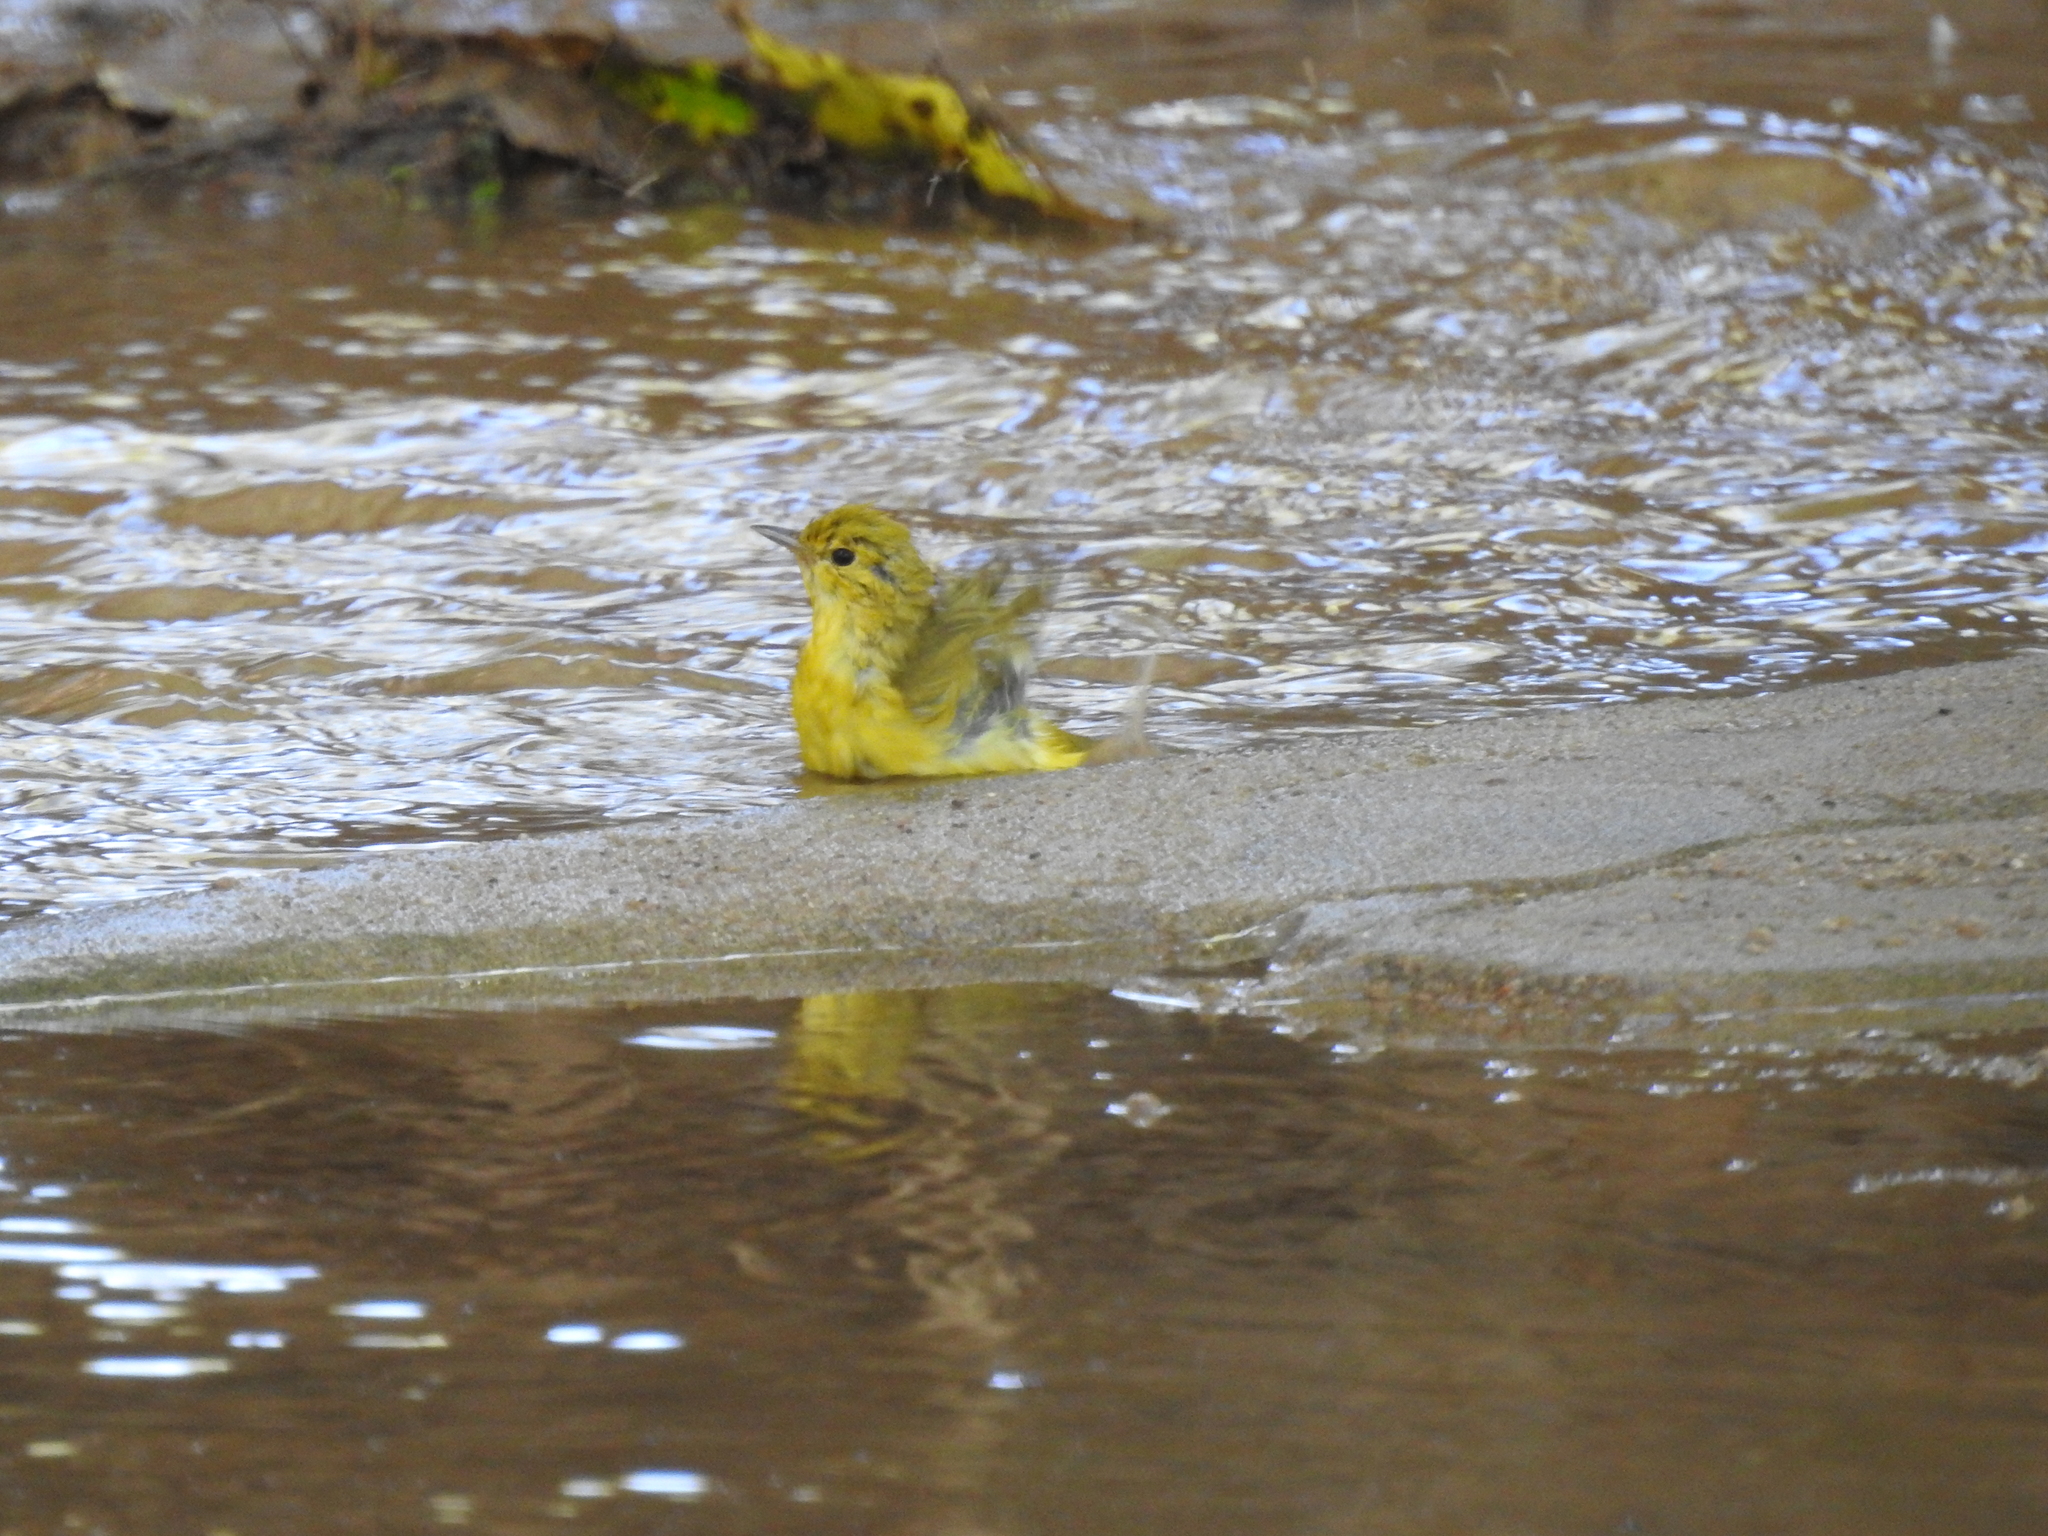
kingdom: Animalia
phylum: Chordata
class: Aves
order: Passeriformes
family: Parulidae
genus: Setophaga
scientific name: Setophaga petechia
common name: Yellow warbler
